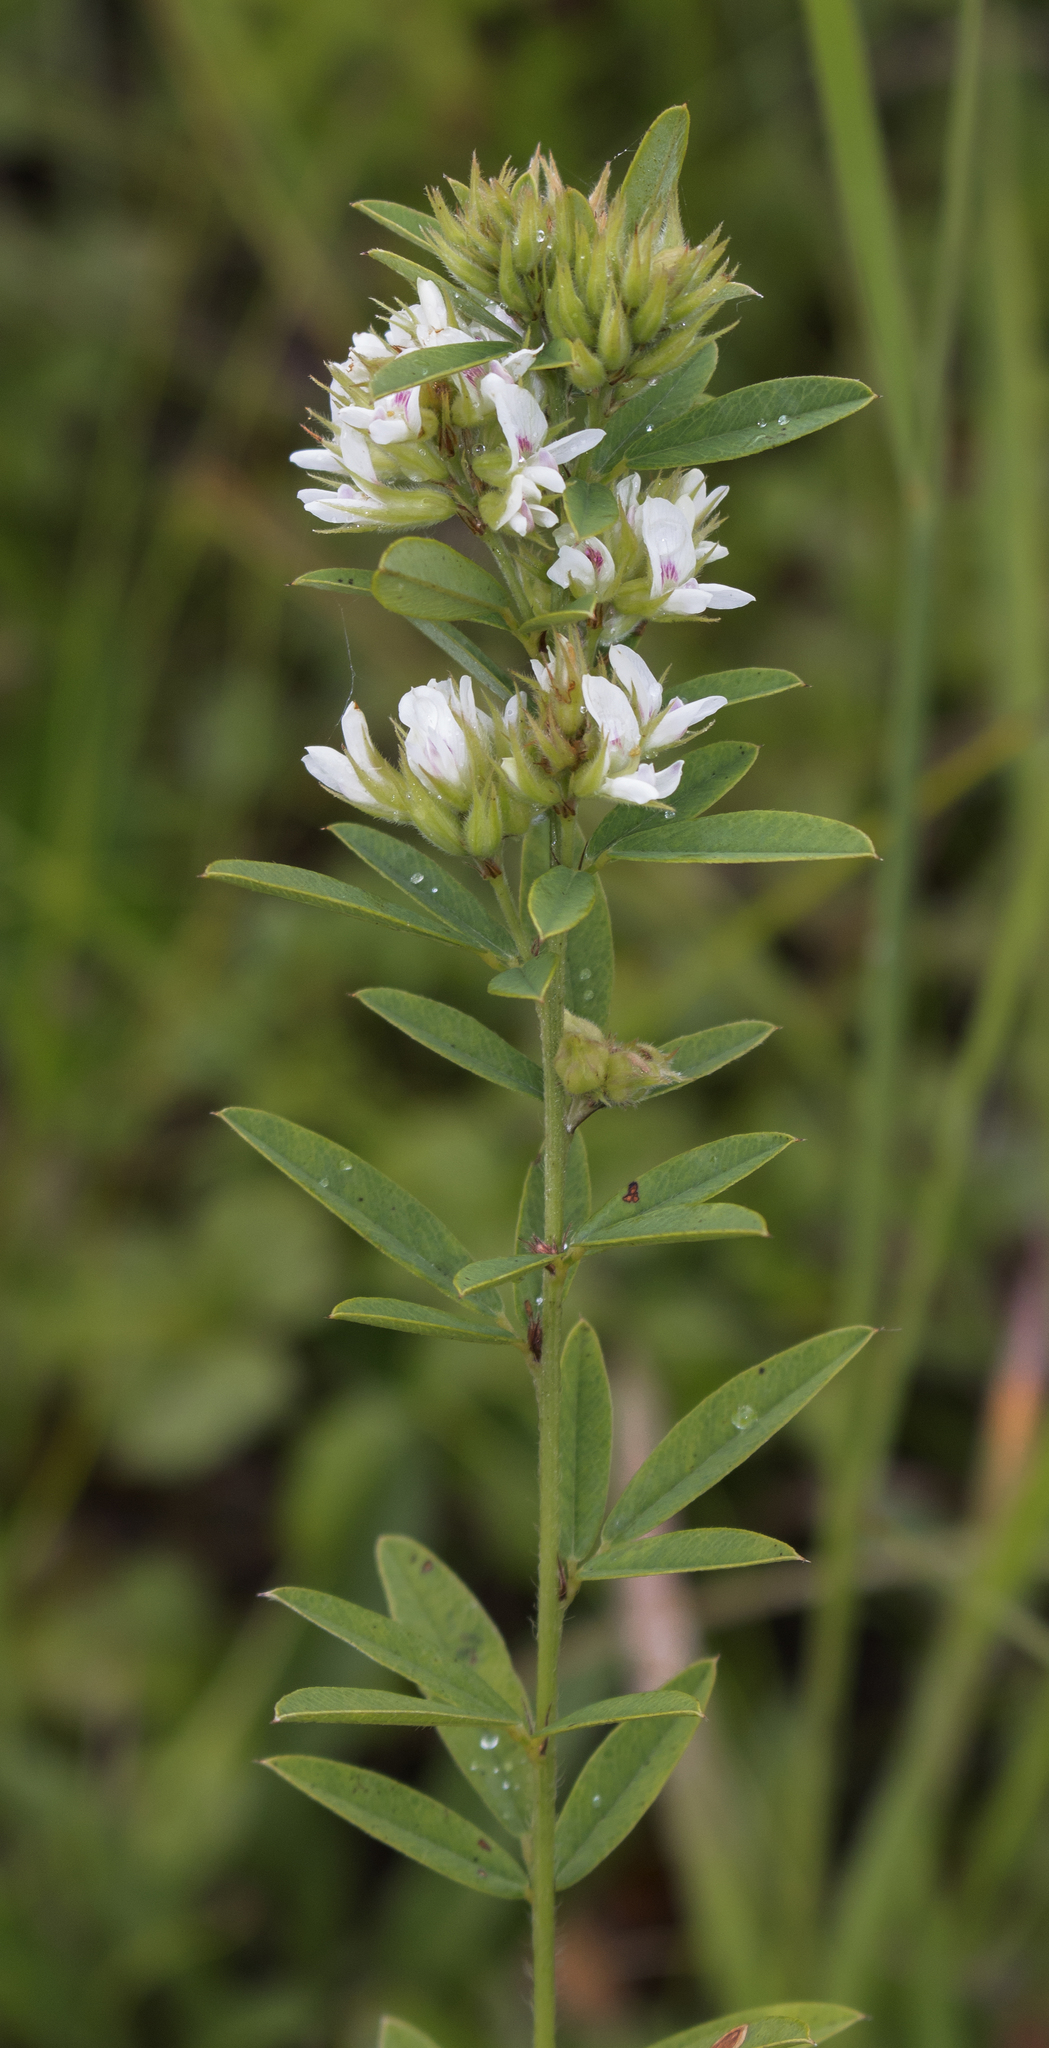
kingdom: Plantae
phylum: Tracheophyta
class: Magnoliopsida
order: Fabales
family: Fabaceae
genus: Lespedeza
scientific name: Lespedeza capitata
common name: Dusty clover
